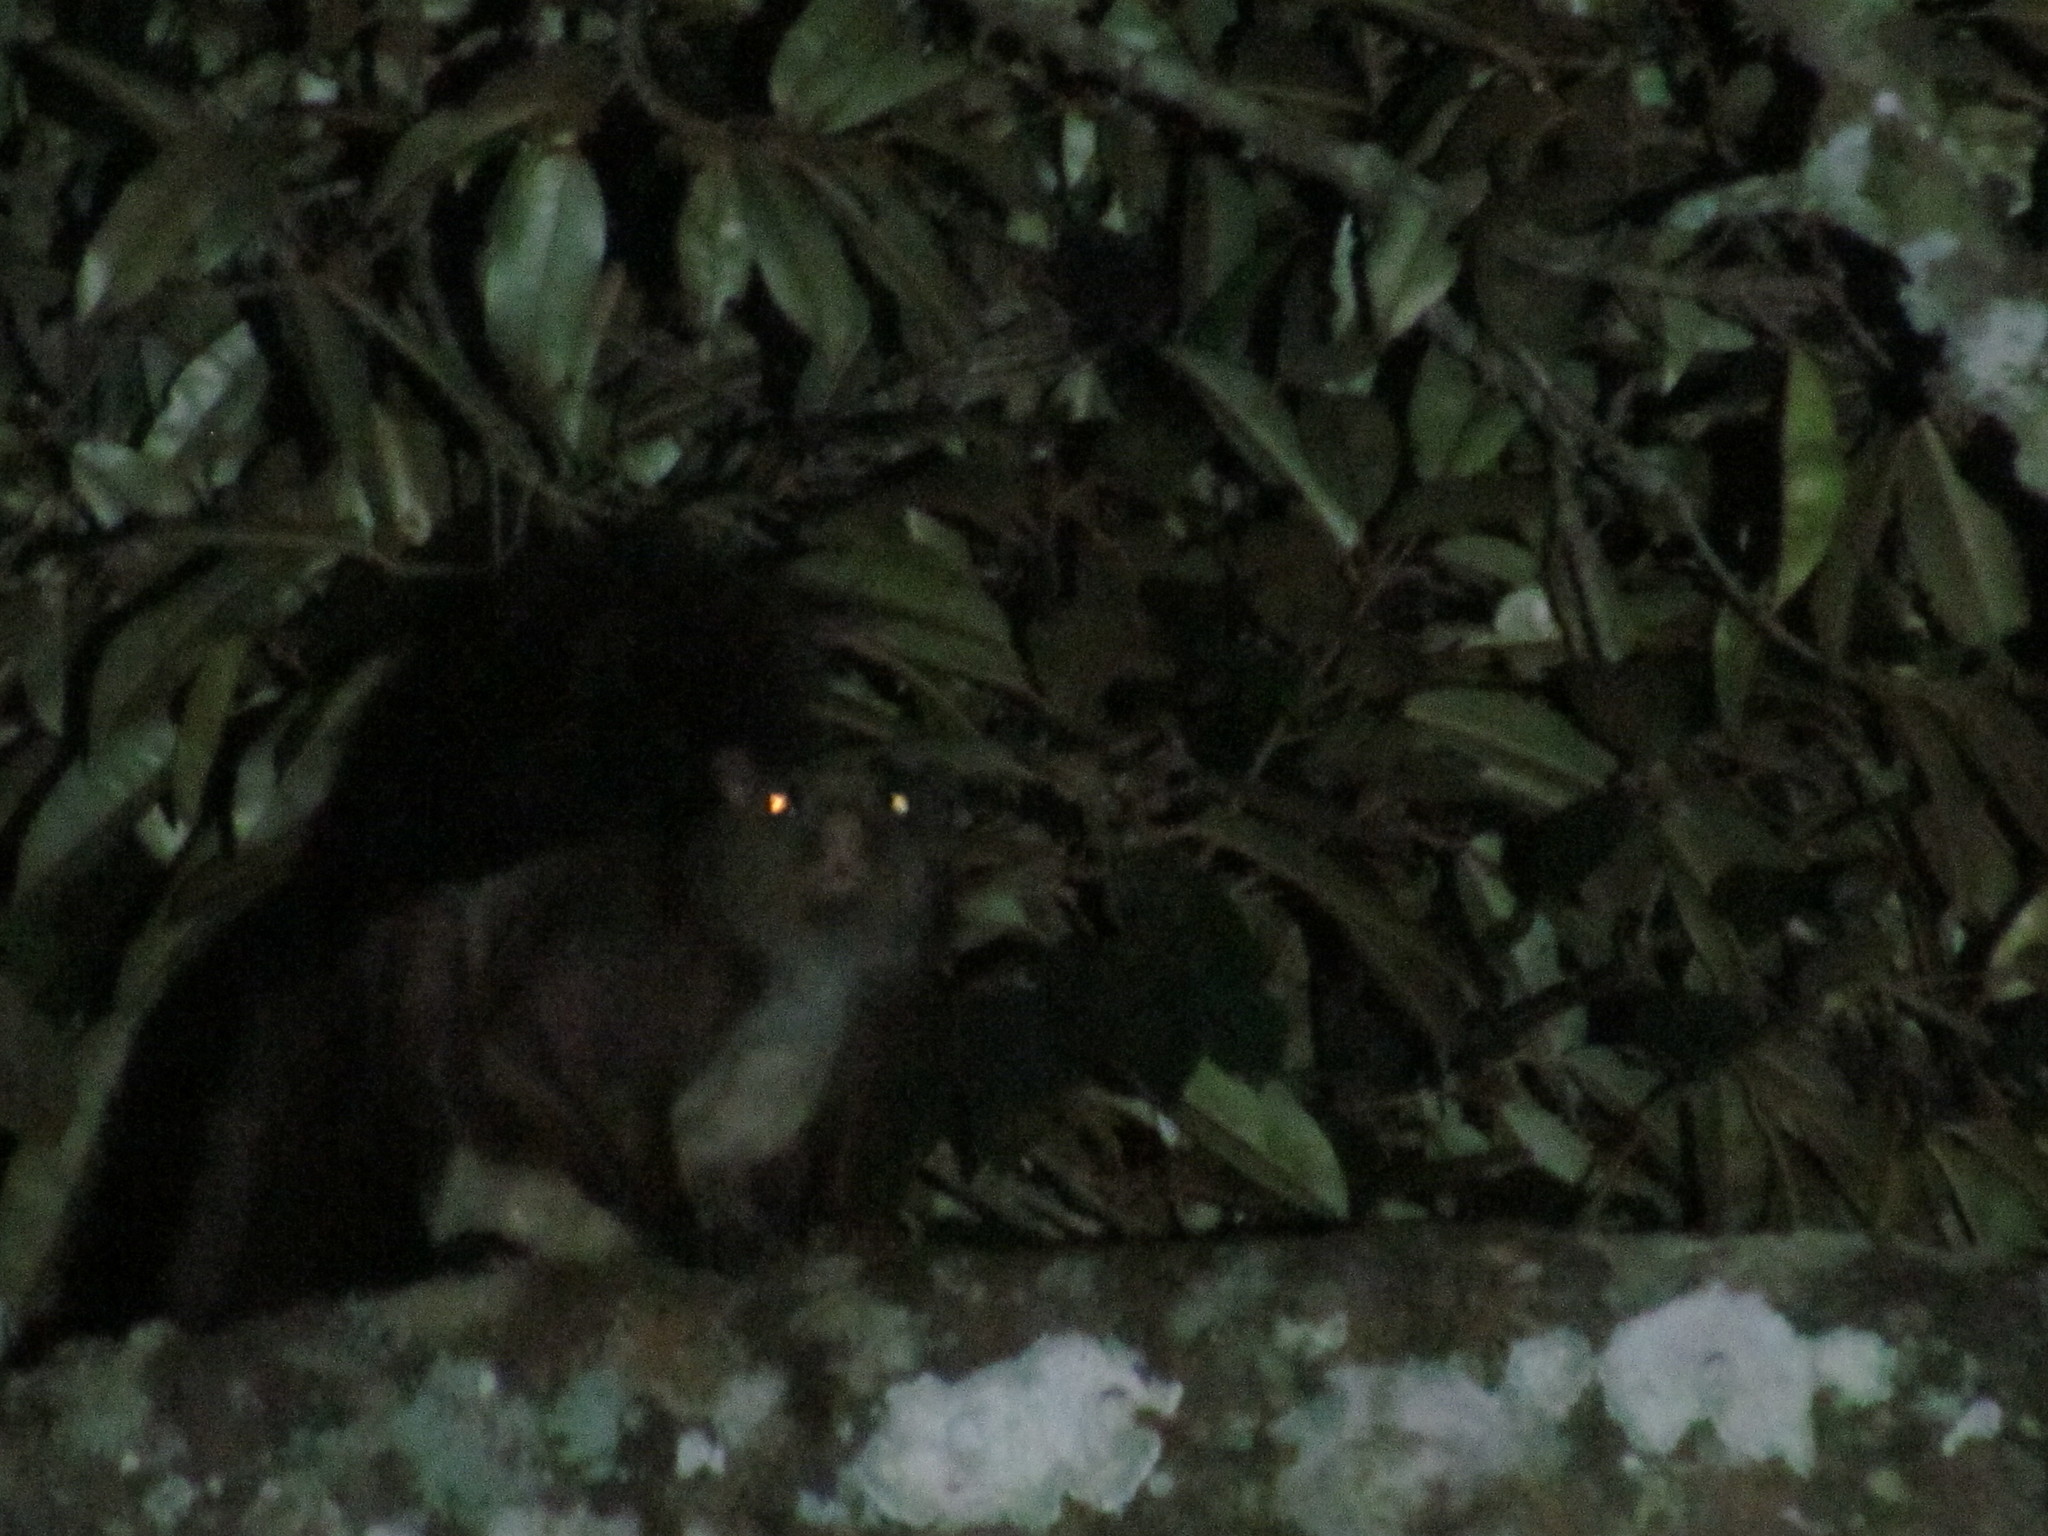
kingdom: Animalia
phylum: Chordata
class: Mammalia
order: Rodentia
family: Sciuridae
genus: Petaurista
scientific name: Petaurista philippensis
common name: Indian giant flying squirrel
